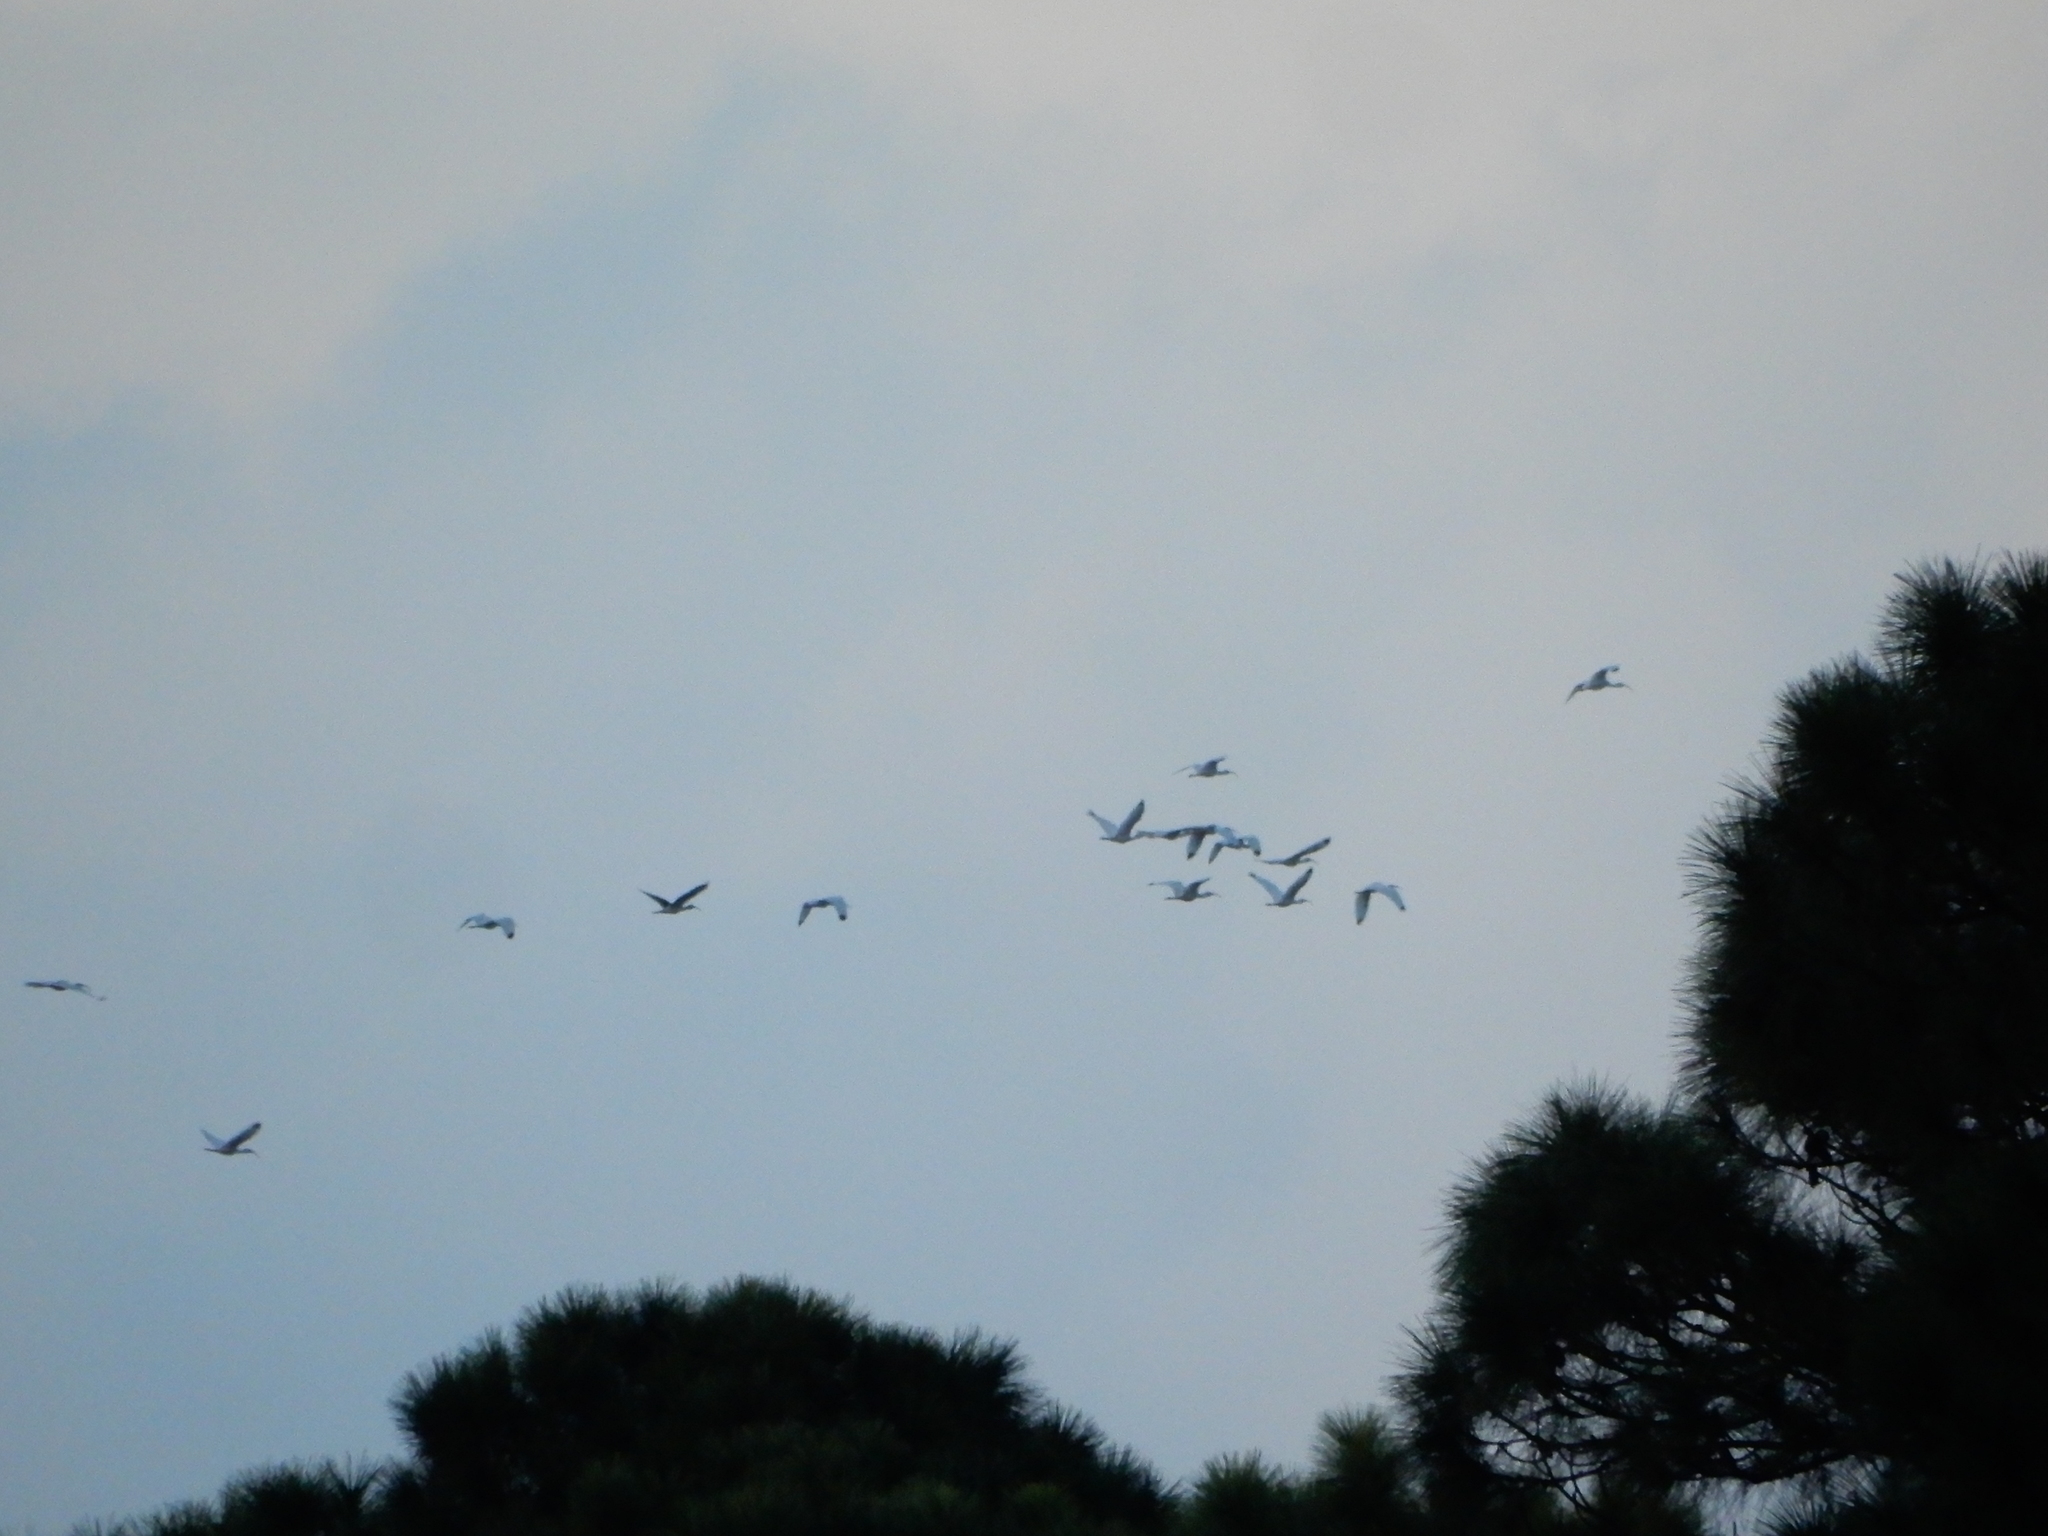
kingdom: Animalia
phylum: Chordata
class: Aves
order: Pelecaniformes
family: Threskiornithidae
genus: Eudocimus
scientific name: Eudocimus albus
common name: White ibis
